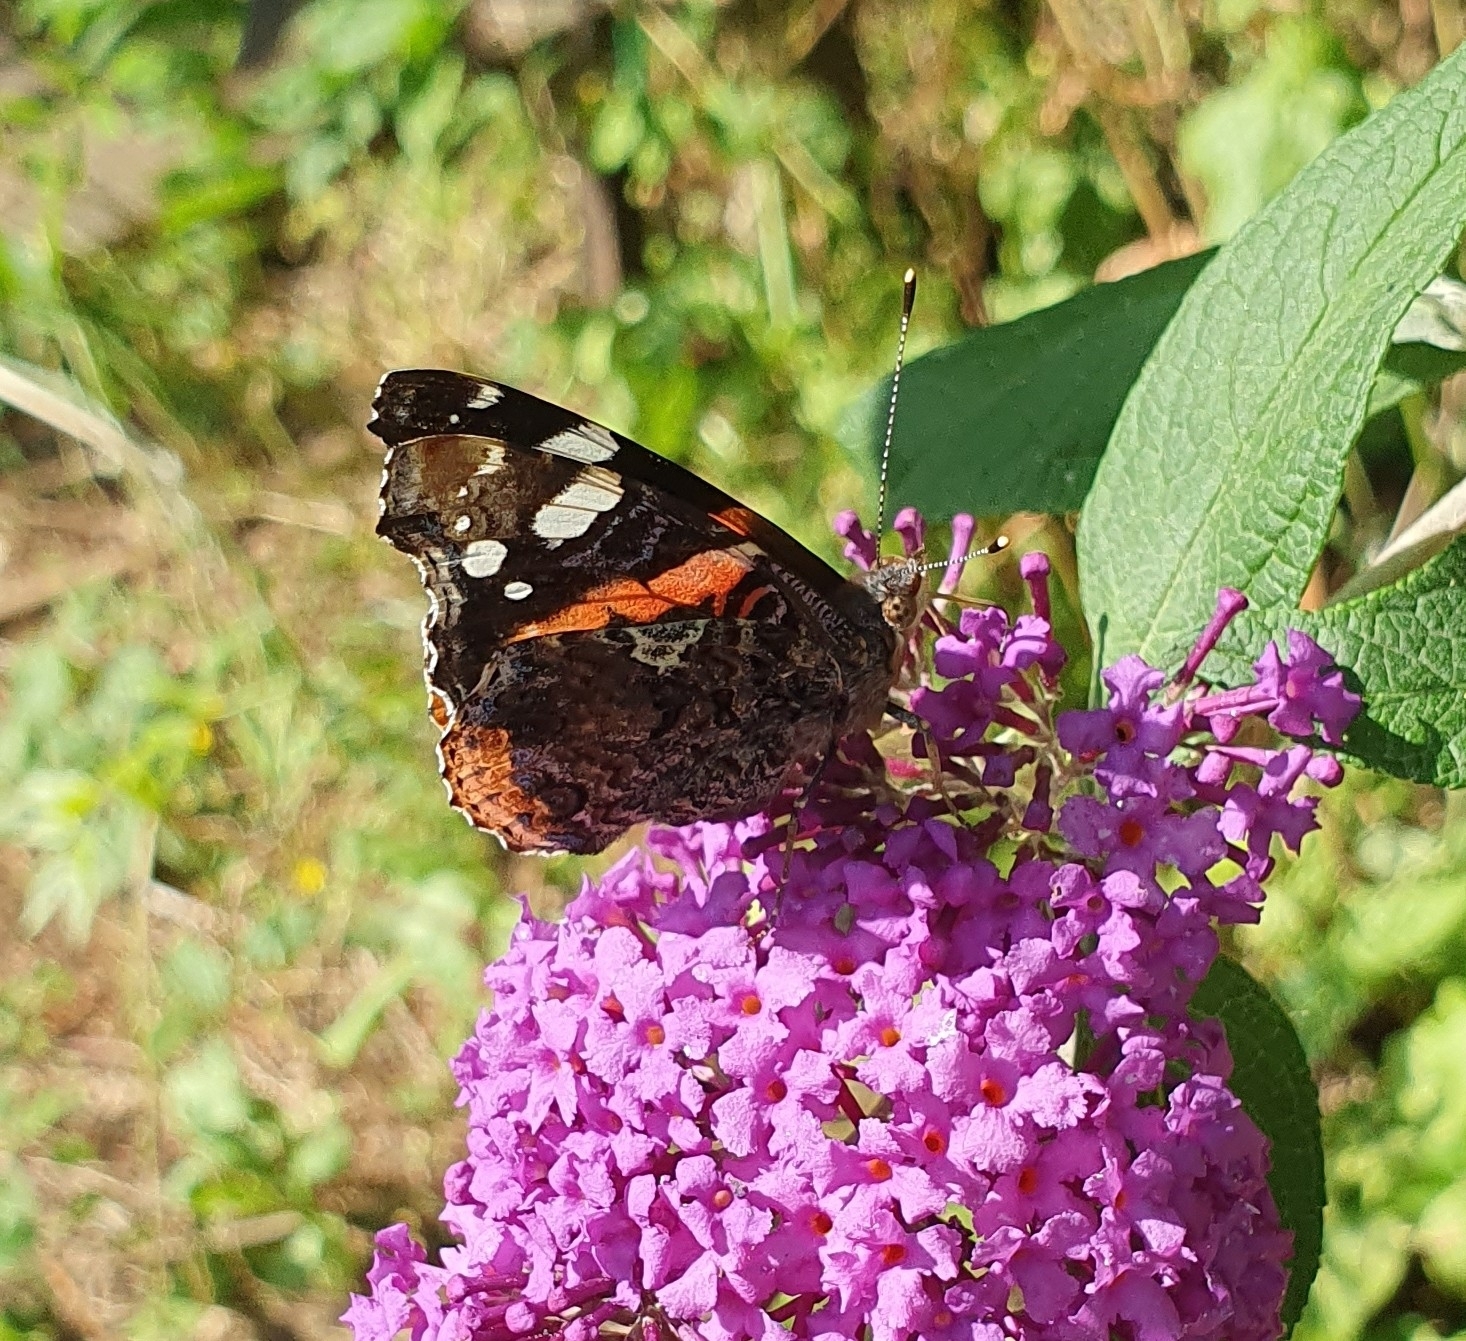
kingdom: Animalia
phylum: Arthropoda
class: Insecta
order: Lepidoptera
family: Nymphalidae
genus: Vanessa
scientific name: Vanessa atalanta
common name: Red admiral
